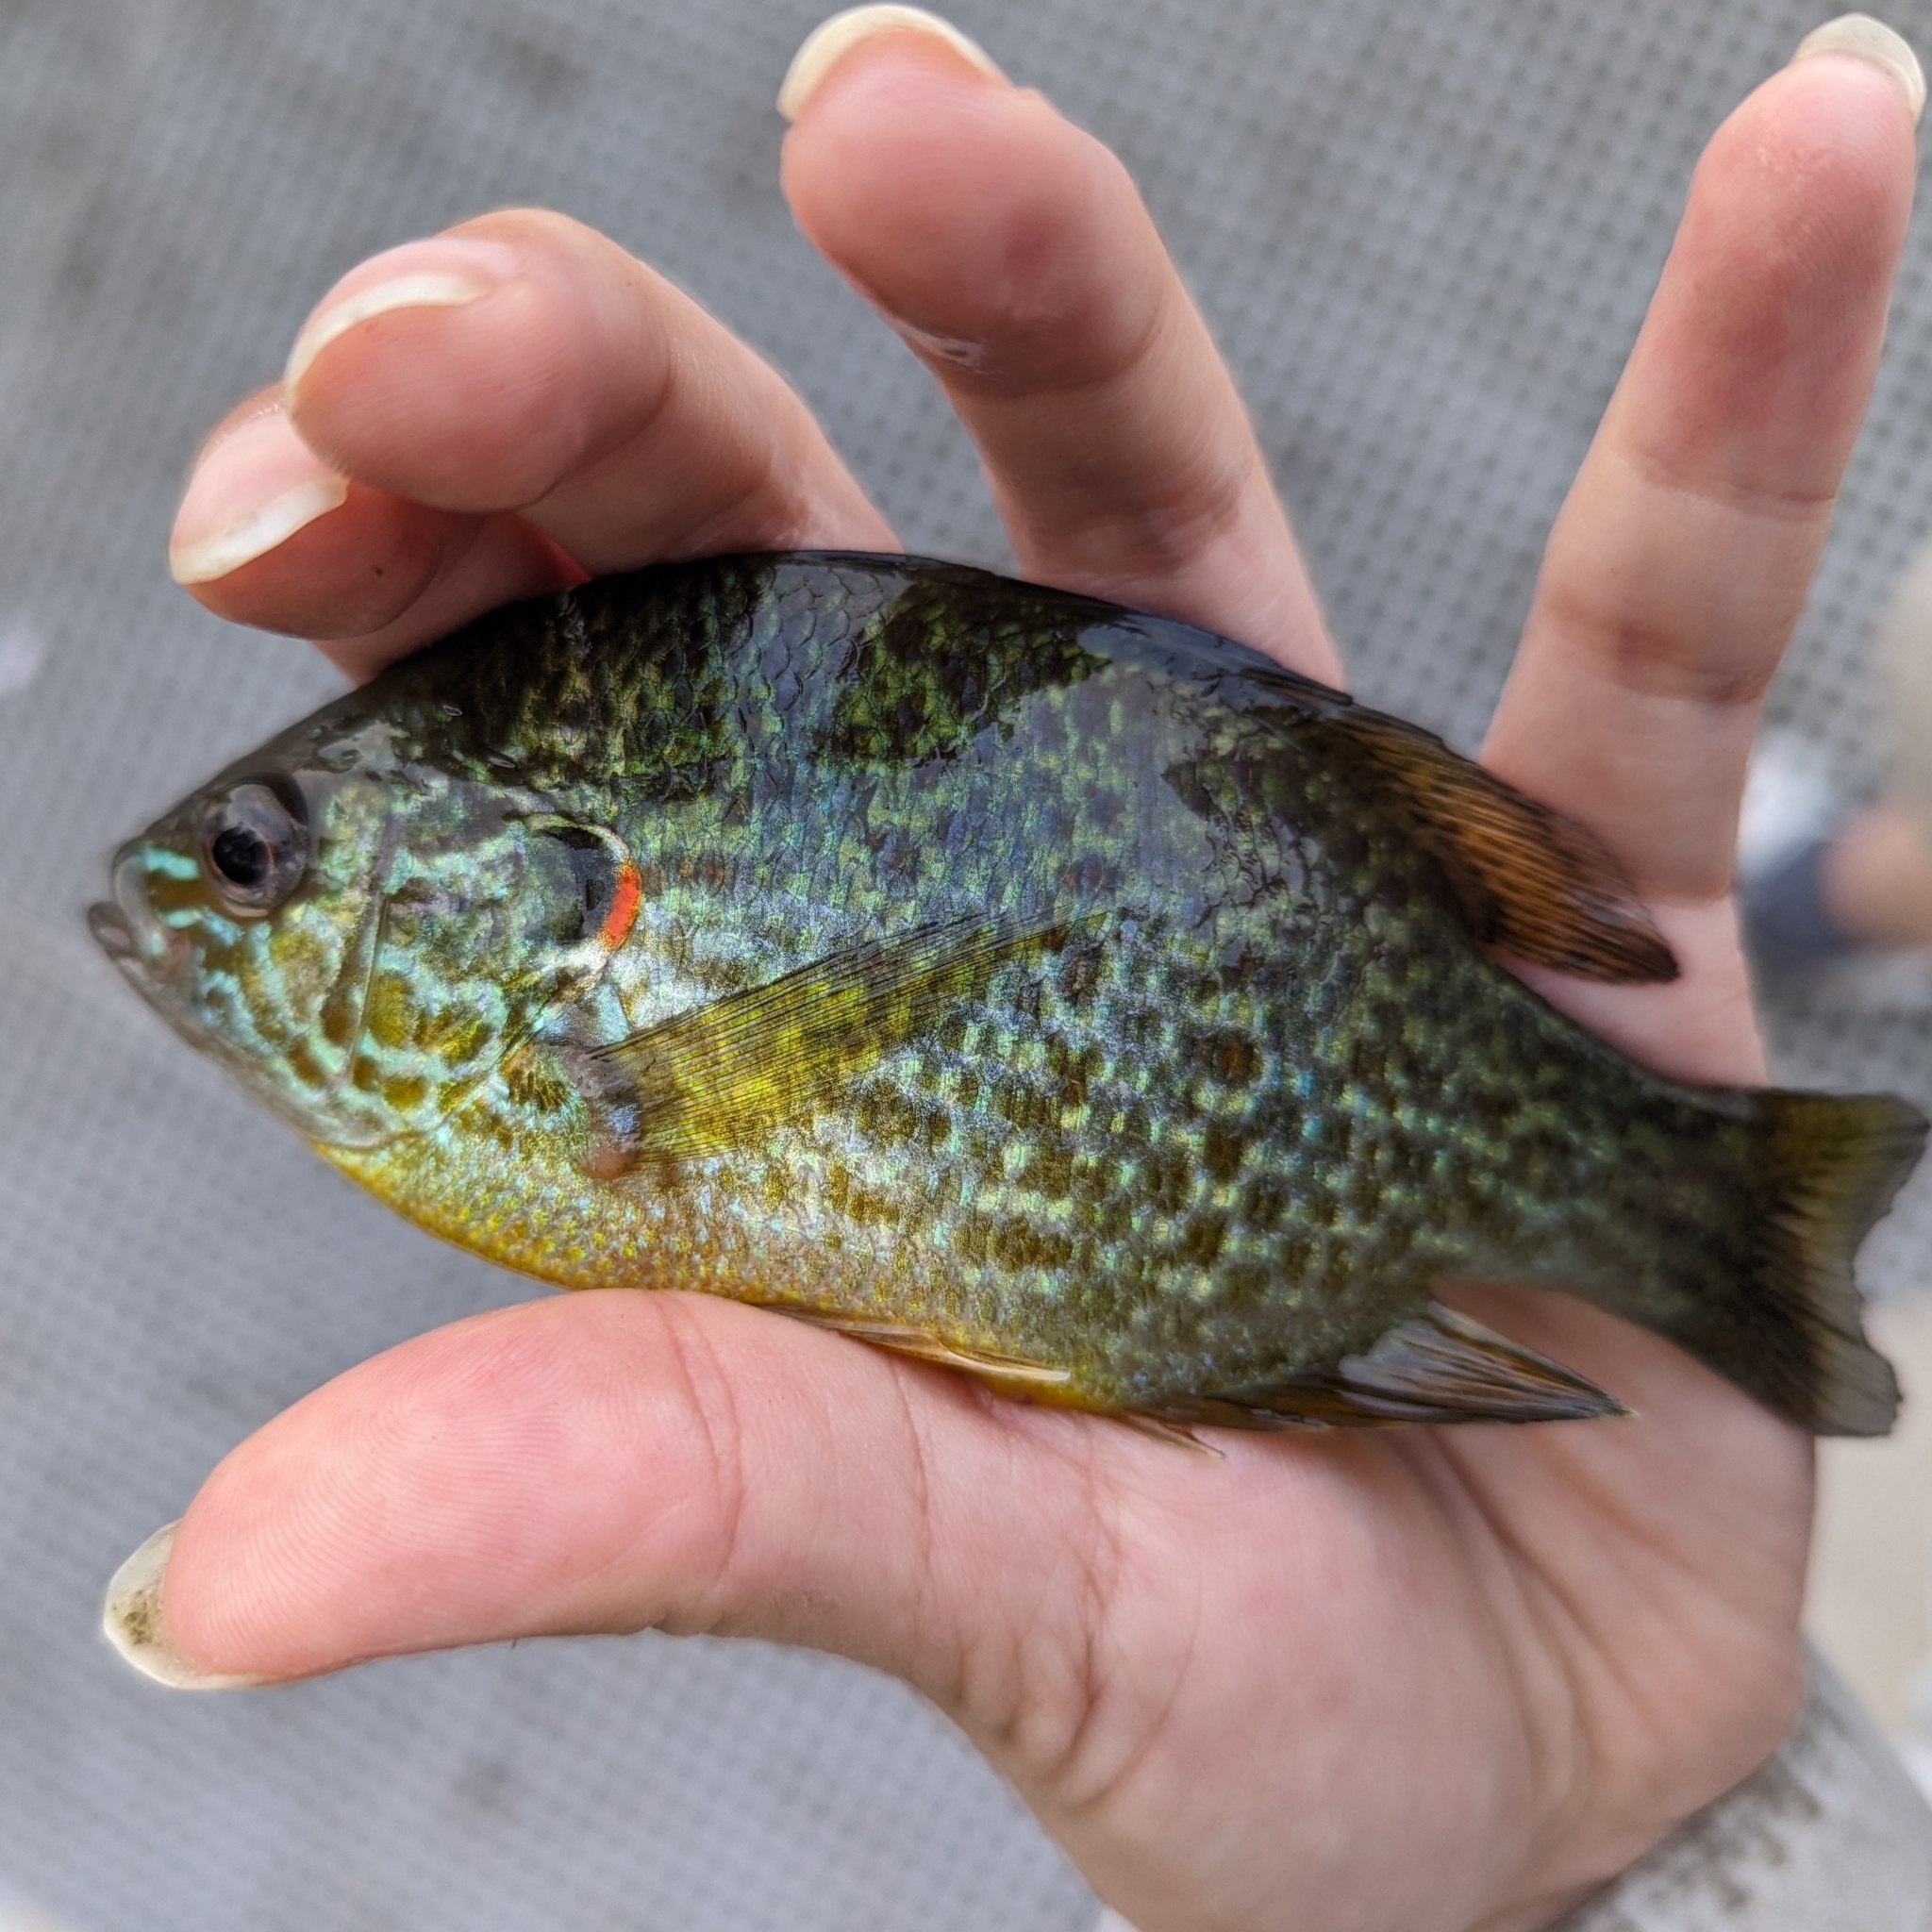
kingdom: Animalia
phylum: Chordata
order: Perciformes
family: Centrarchidae
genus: Lepomis
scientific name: Lepomis gibbosus
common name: Pumpkinseed
